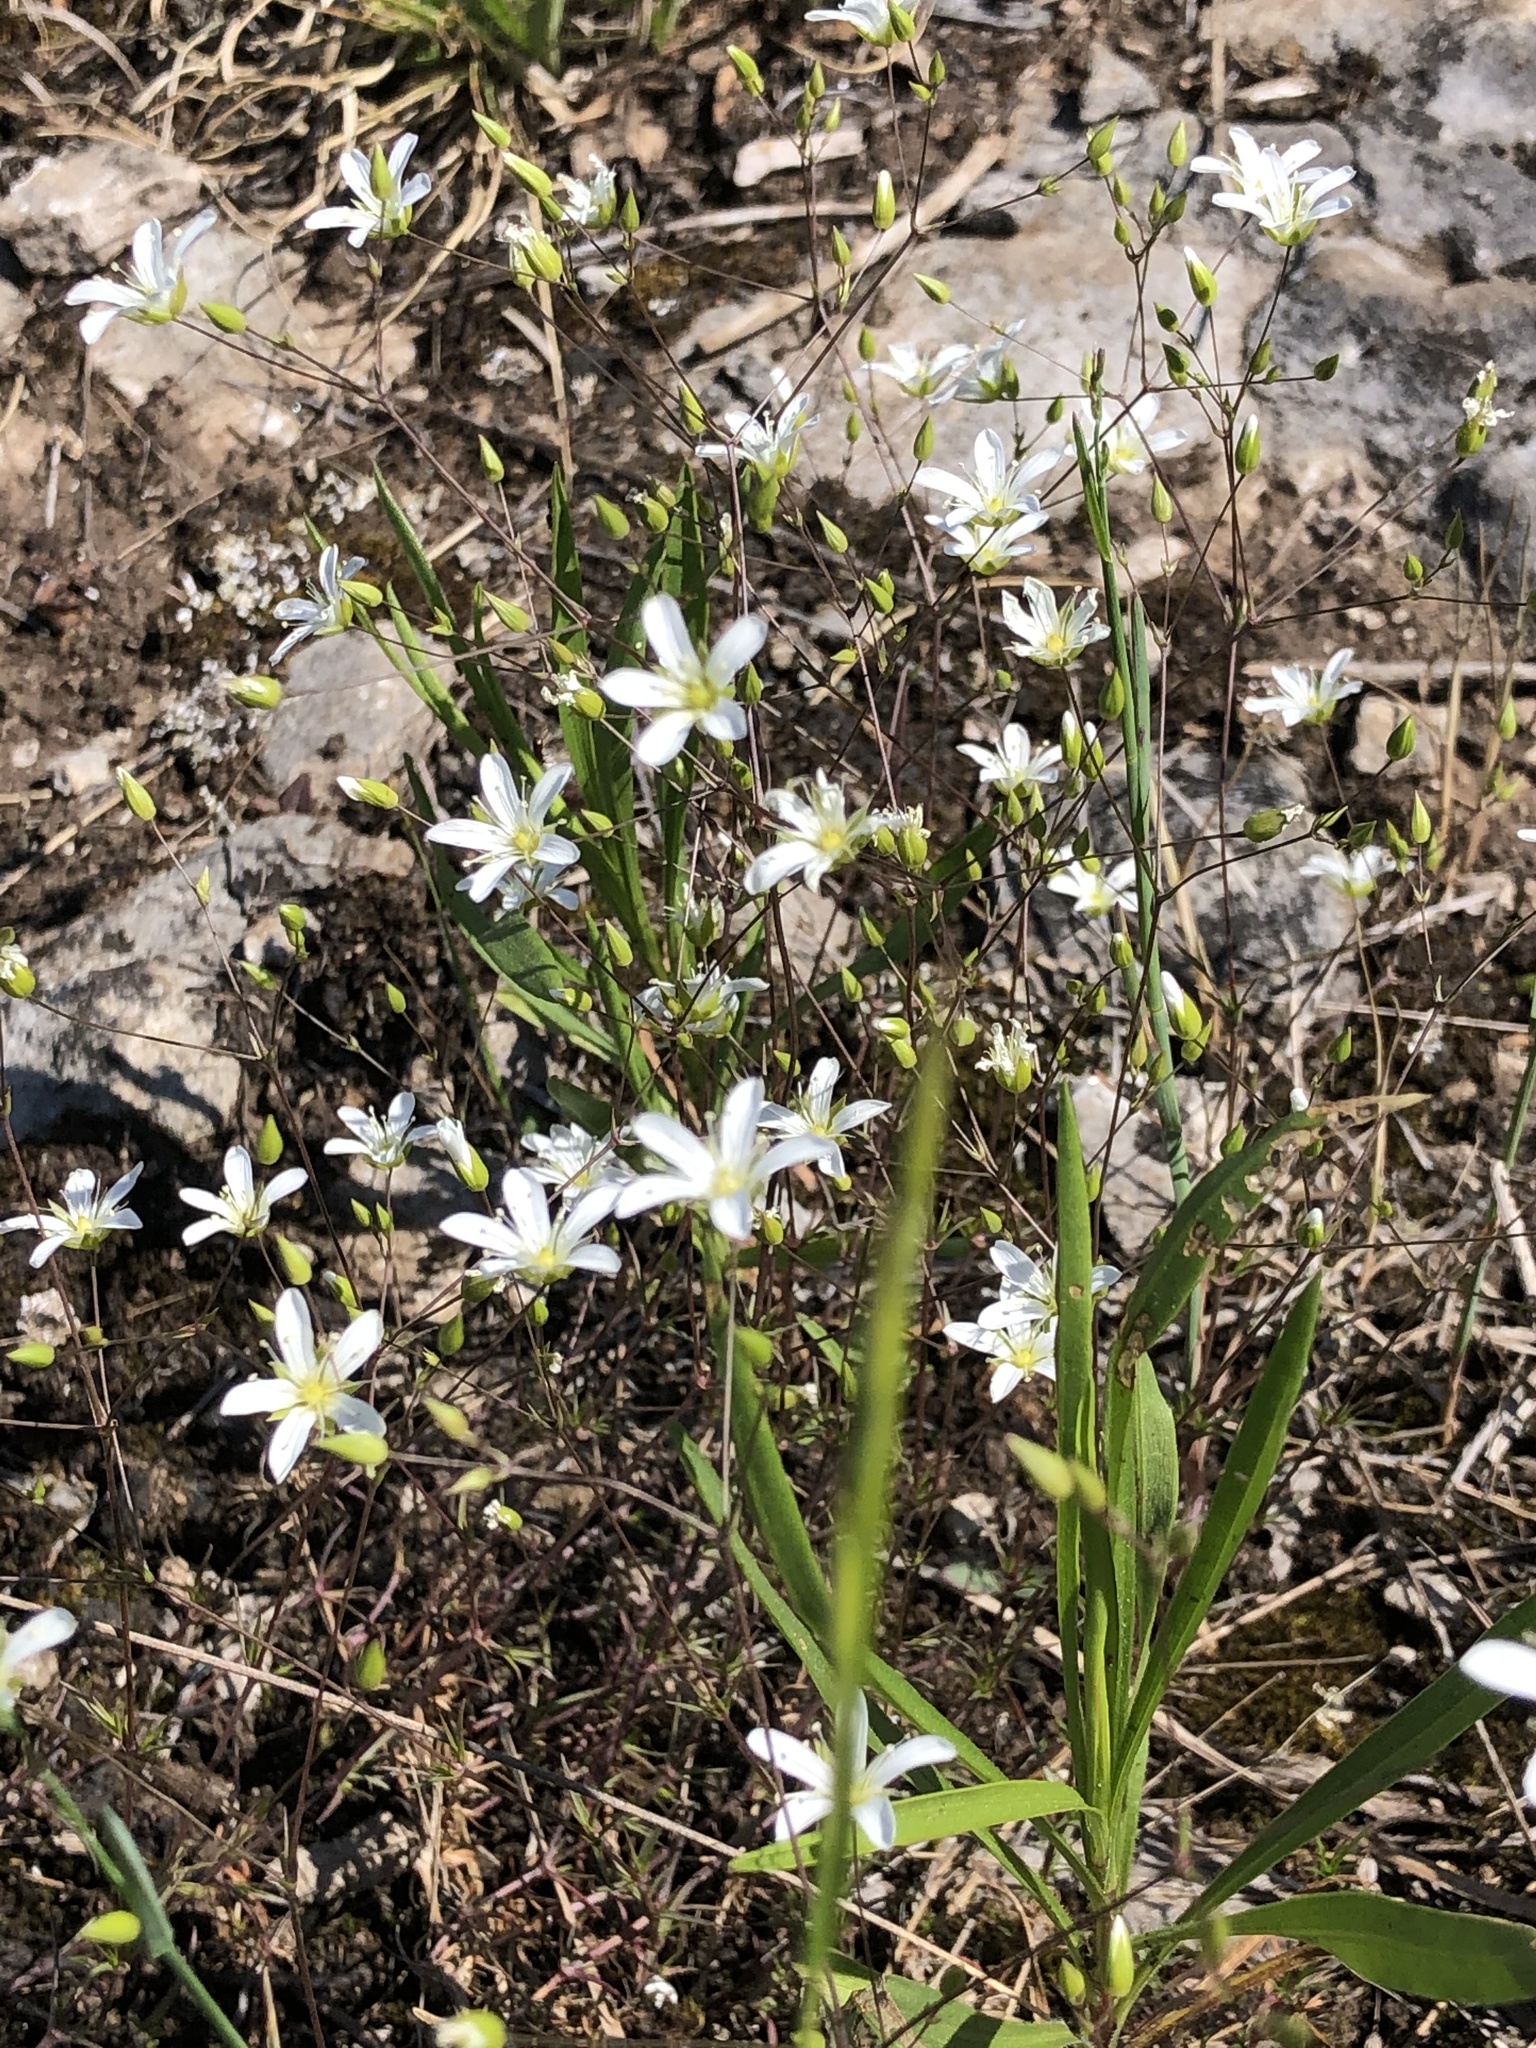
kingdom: Plantae
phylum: Tracheophyta
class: Magnoliopsida
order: Caryophyllales
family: Caryophyllaceae
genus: Sabulina
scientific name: Sabulina michauxii
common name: Michaux's stitchwort
